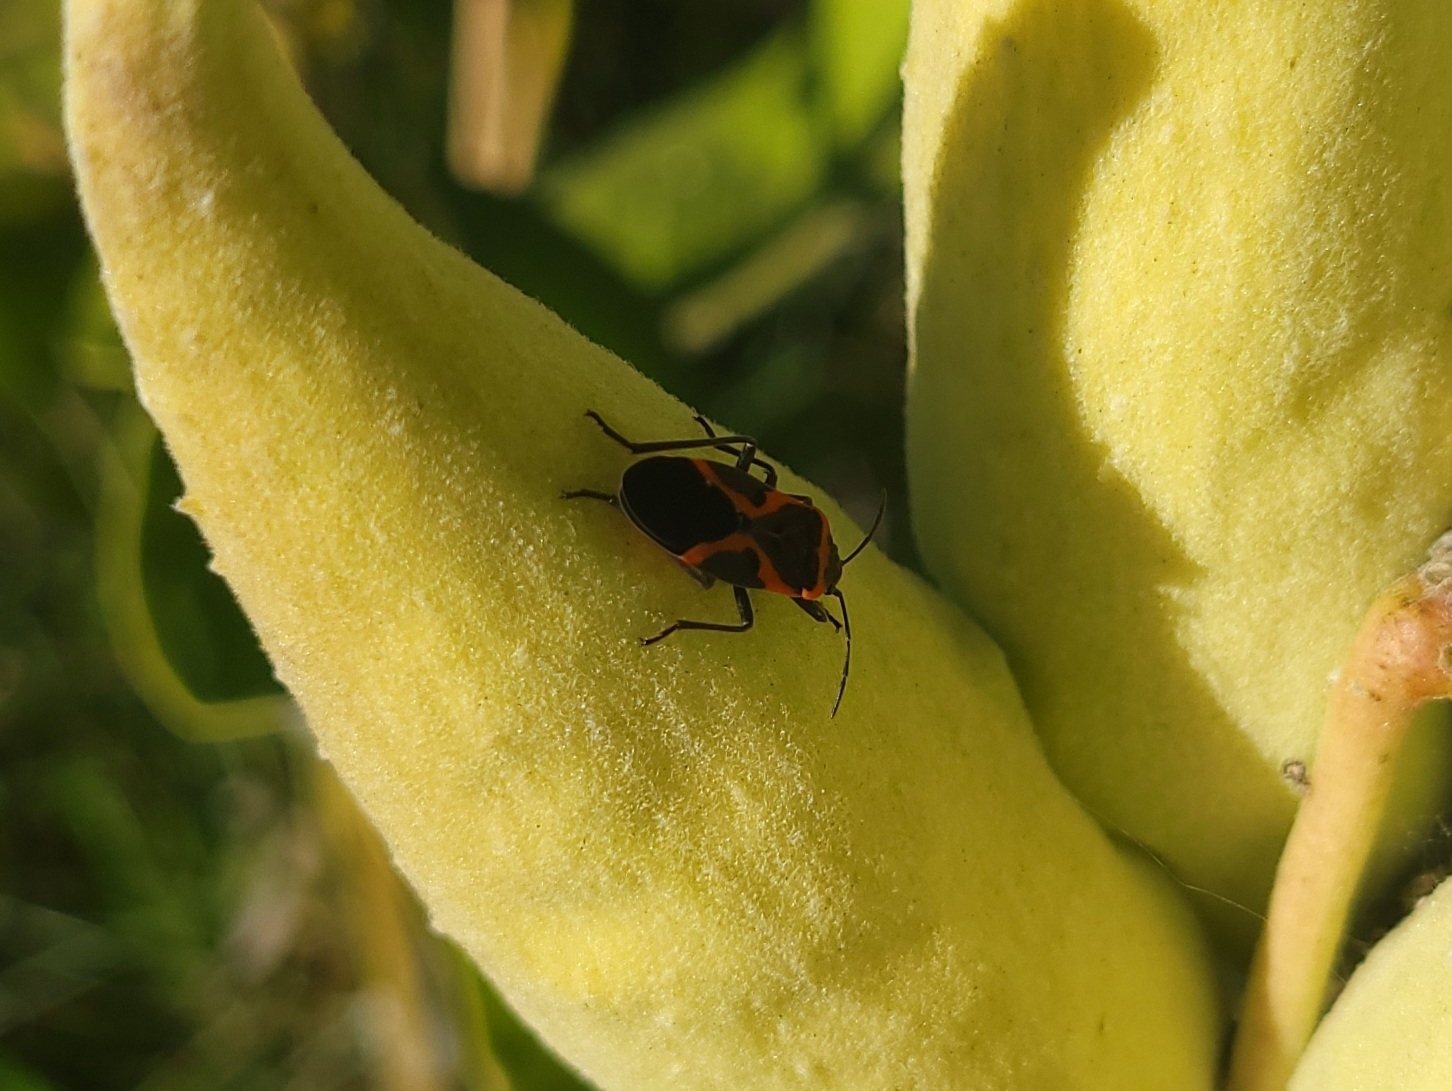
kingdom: Animalia
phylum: Arthropoda
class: Insecta
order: Hemiptera
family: Lygaeidae
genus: Lygaeus
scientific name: Lygaeus kalmii
